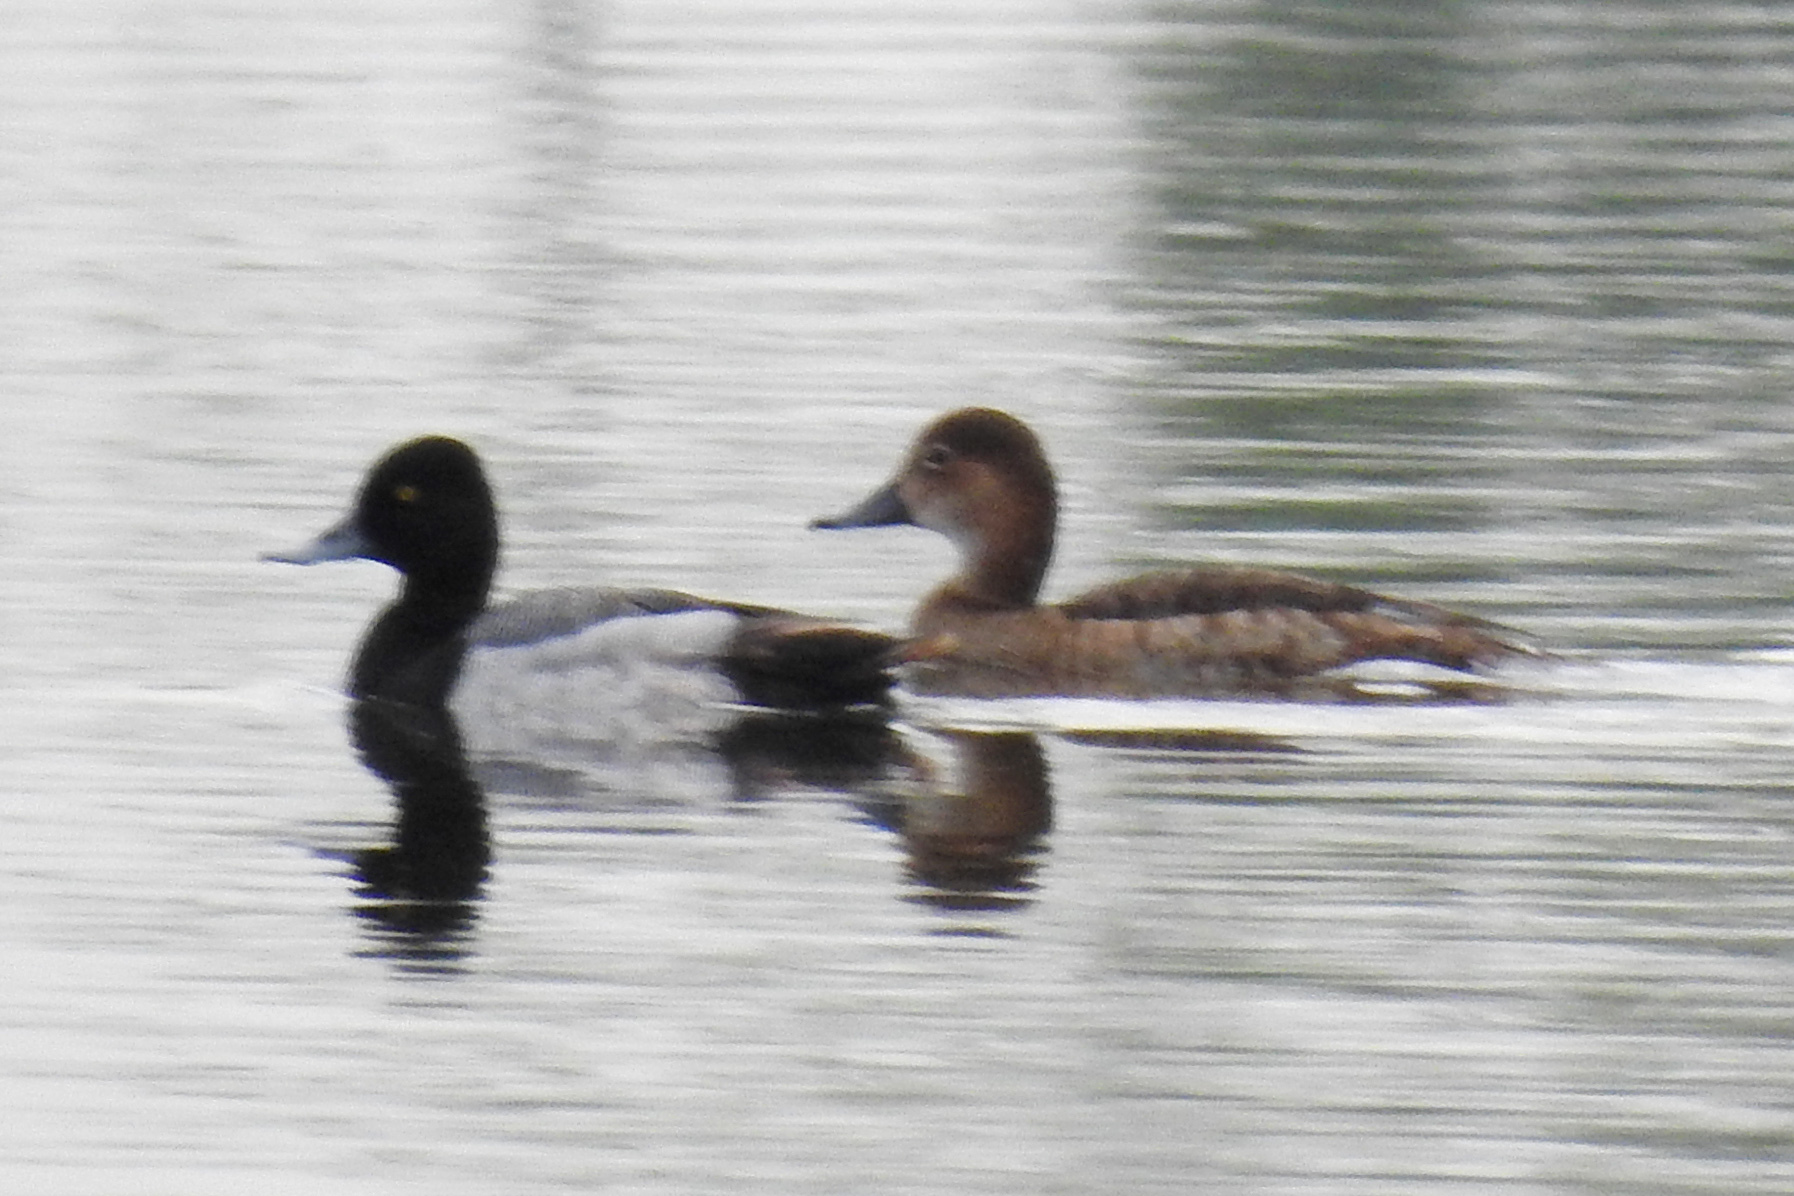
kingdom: Animalia
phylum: Chordata
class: Aves
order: Anseriformes
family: Anatidae
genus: Aythya
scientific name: Aythya affinis
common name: Lesser scaup
